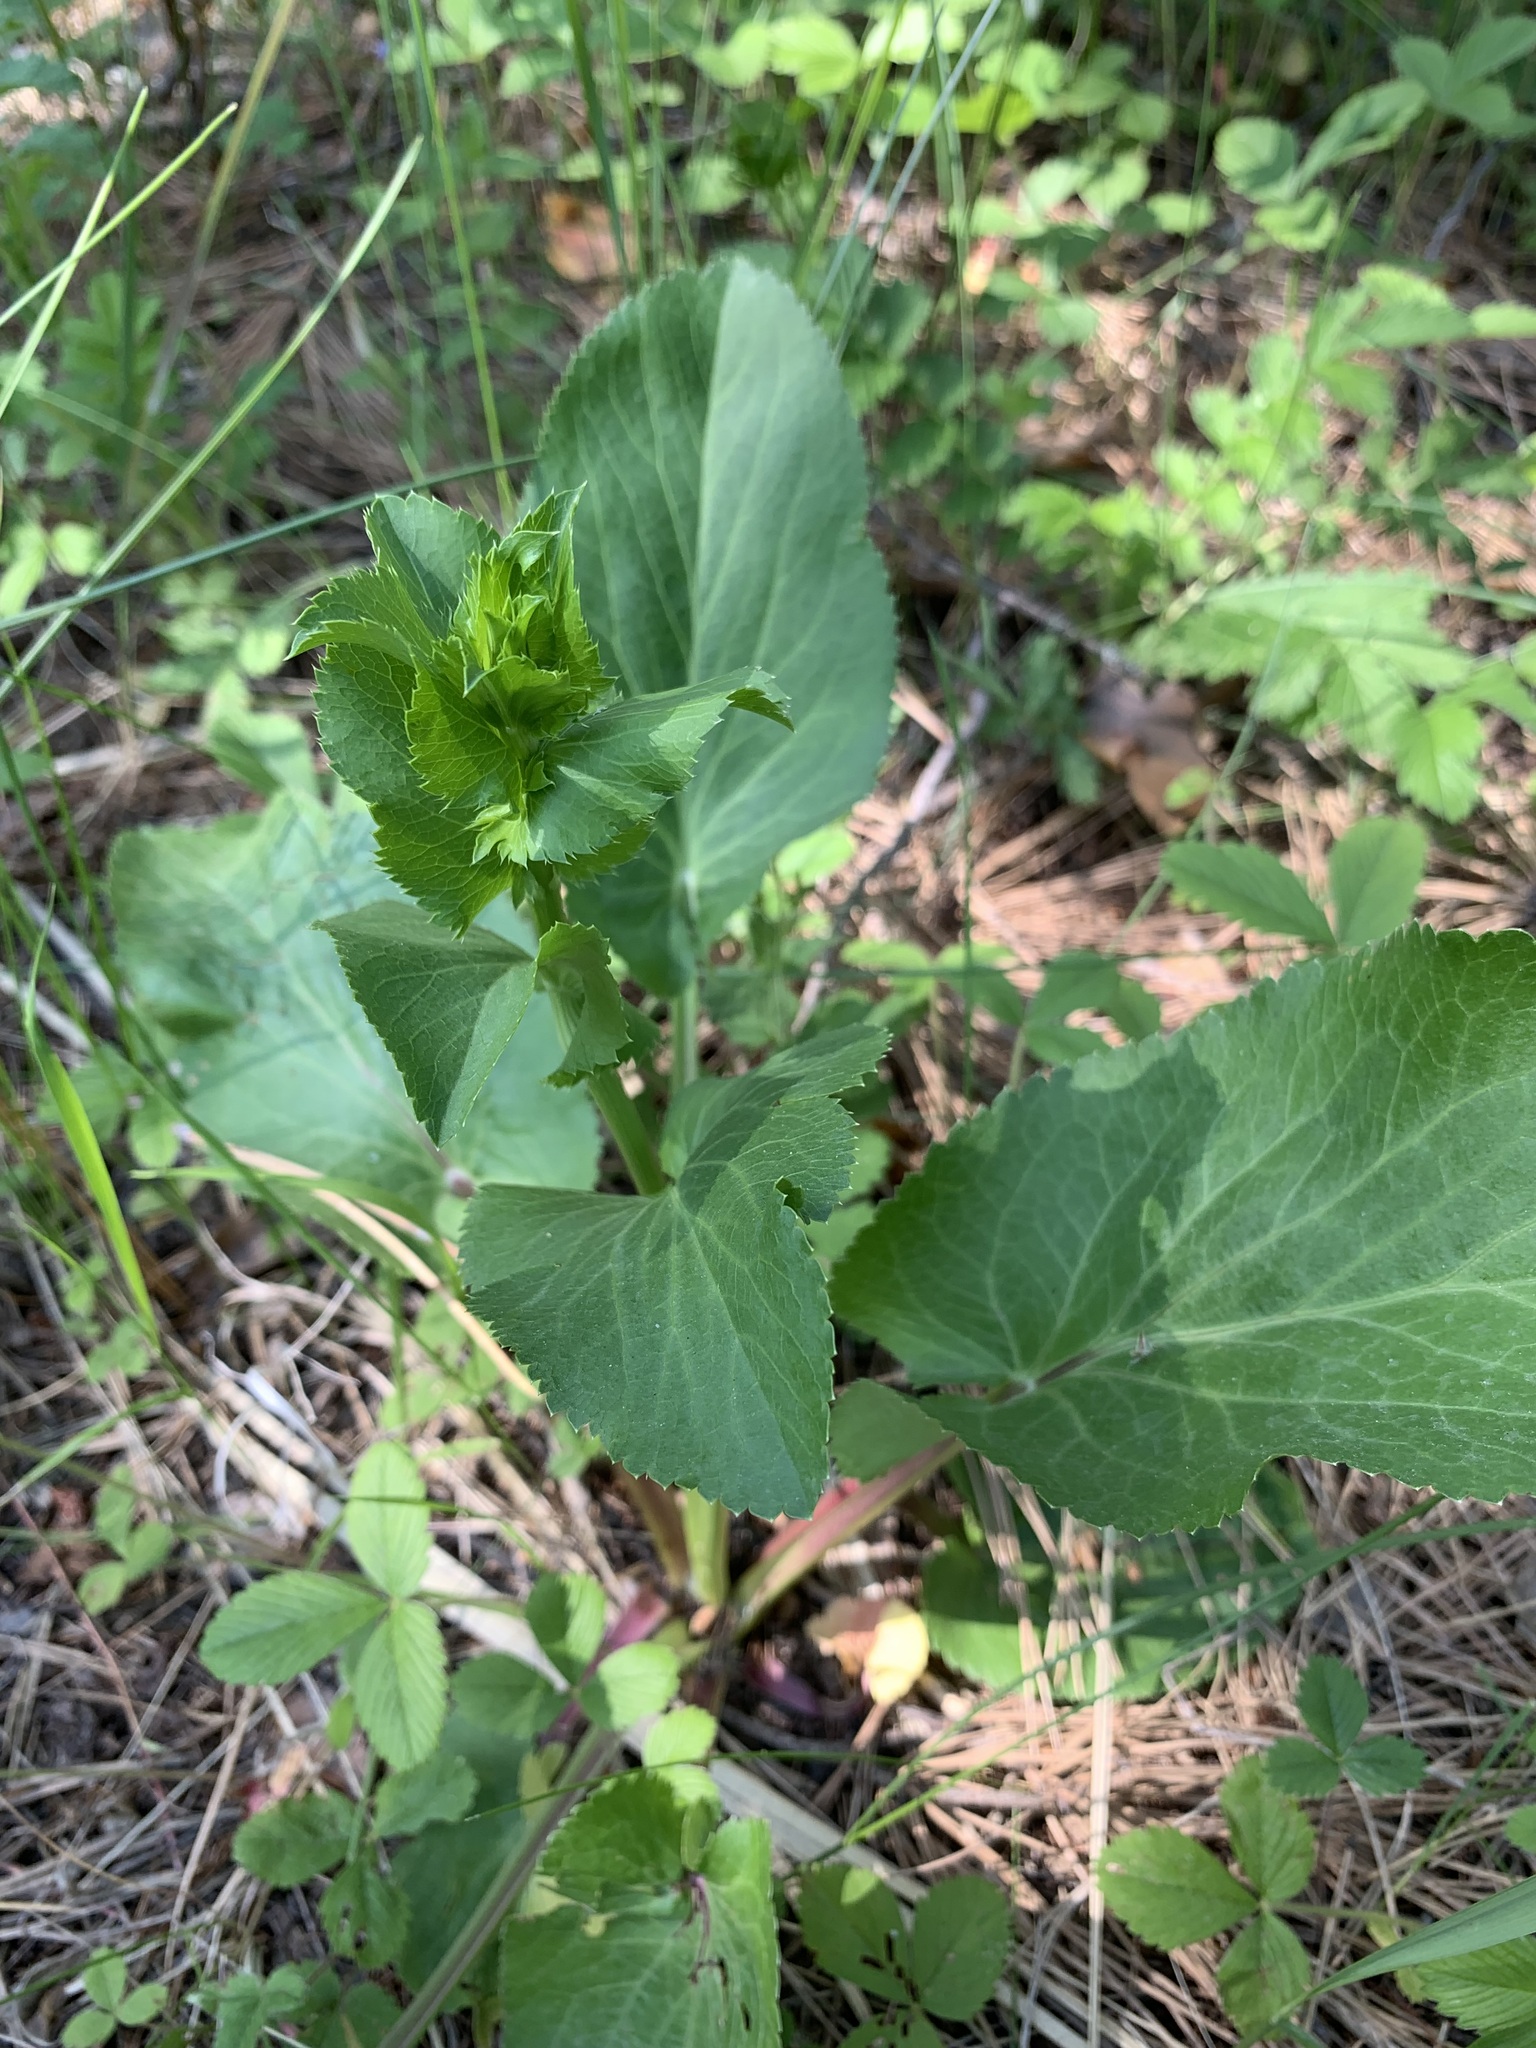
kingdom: Plantae
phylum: Tracheophyta
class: Magnoliopsida
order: Apiales
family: Apiaceae
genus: Eryngium
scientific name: Eryngium planum
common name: Blue eryngo
